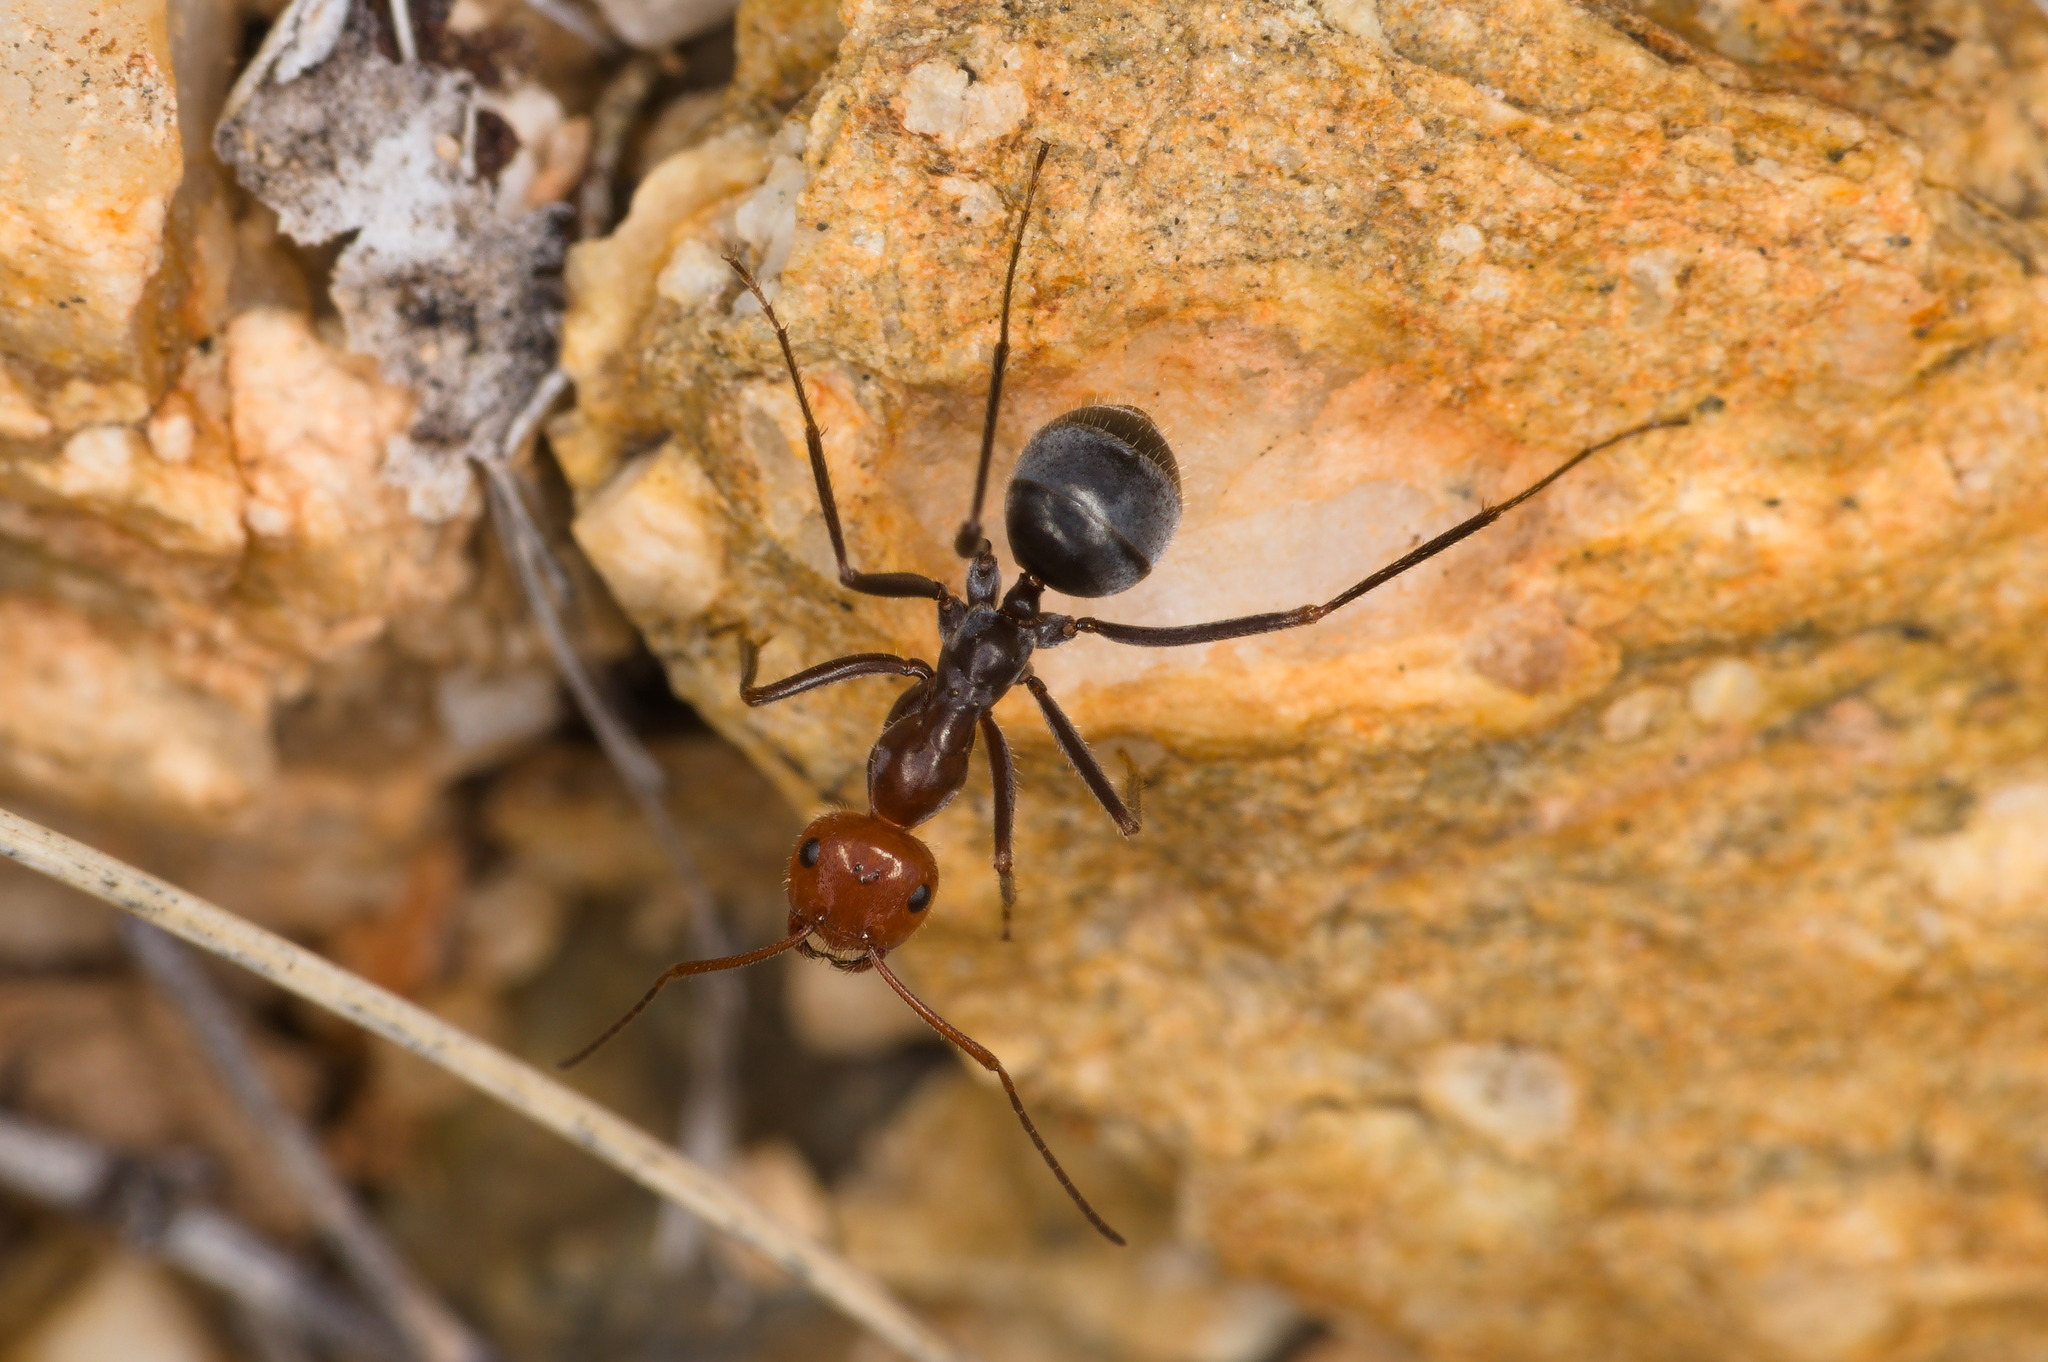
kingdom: Animalia
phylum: Arthropoda
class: Insecta
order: Hymenoptera
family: Formicidae
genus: Myrmecocystus
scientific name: Myrmecocystus placodops
